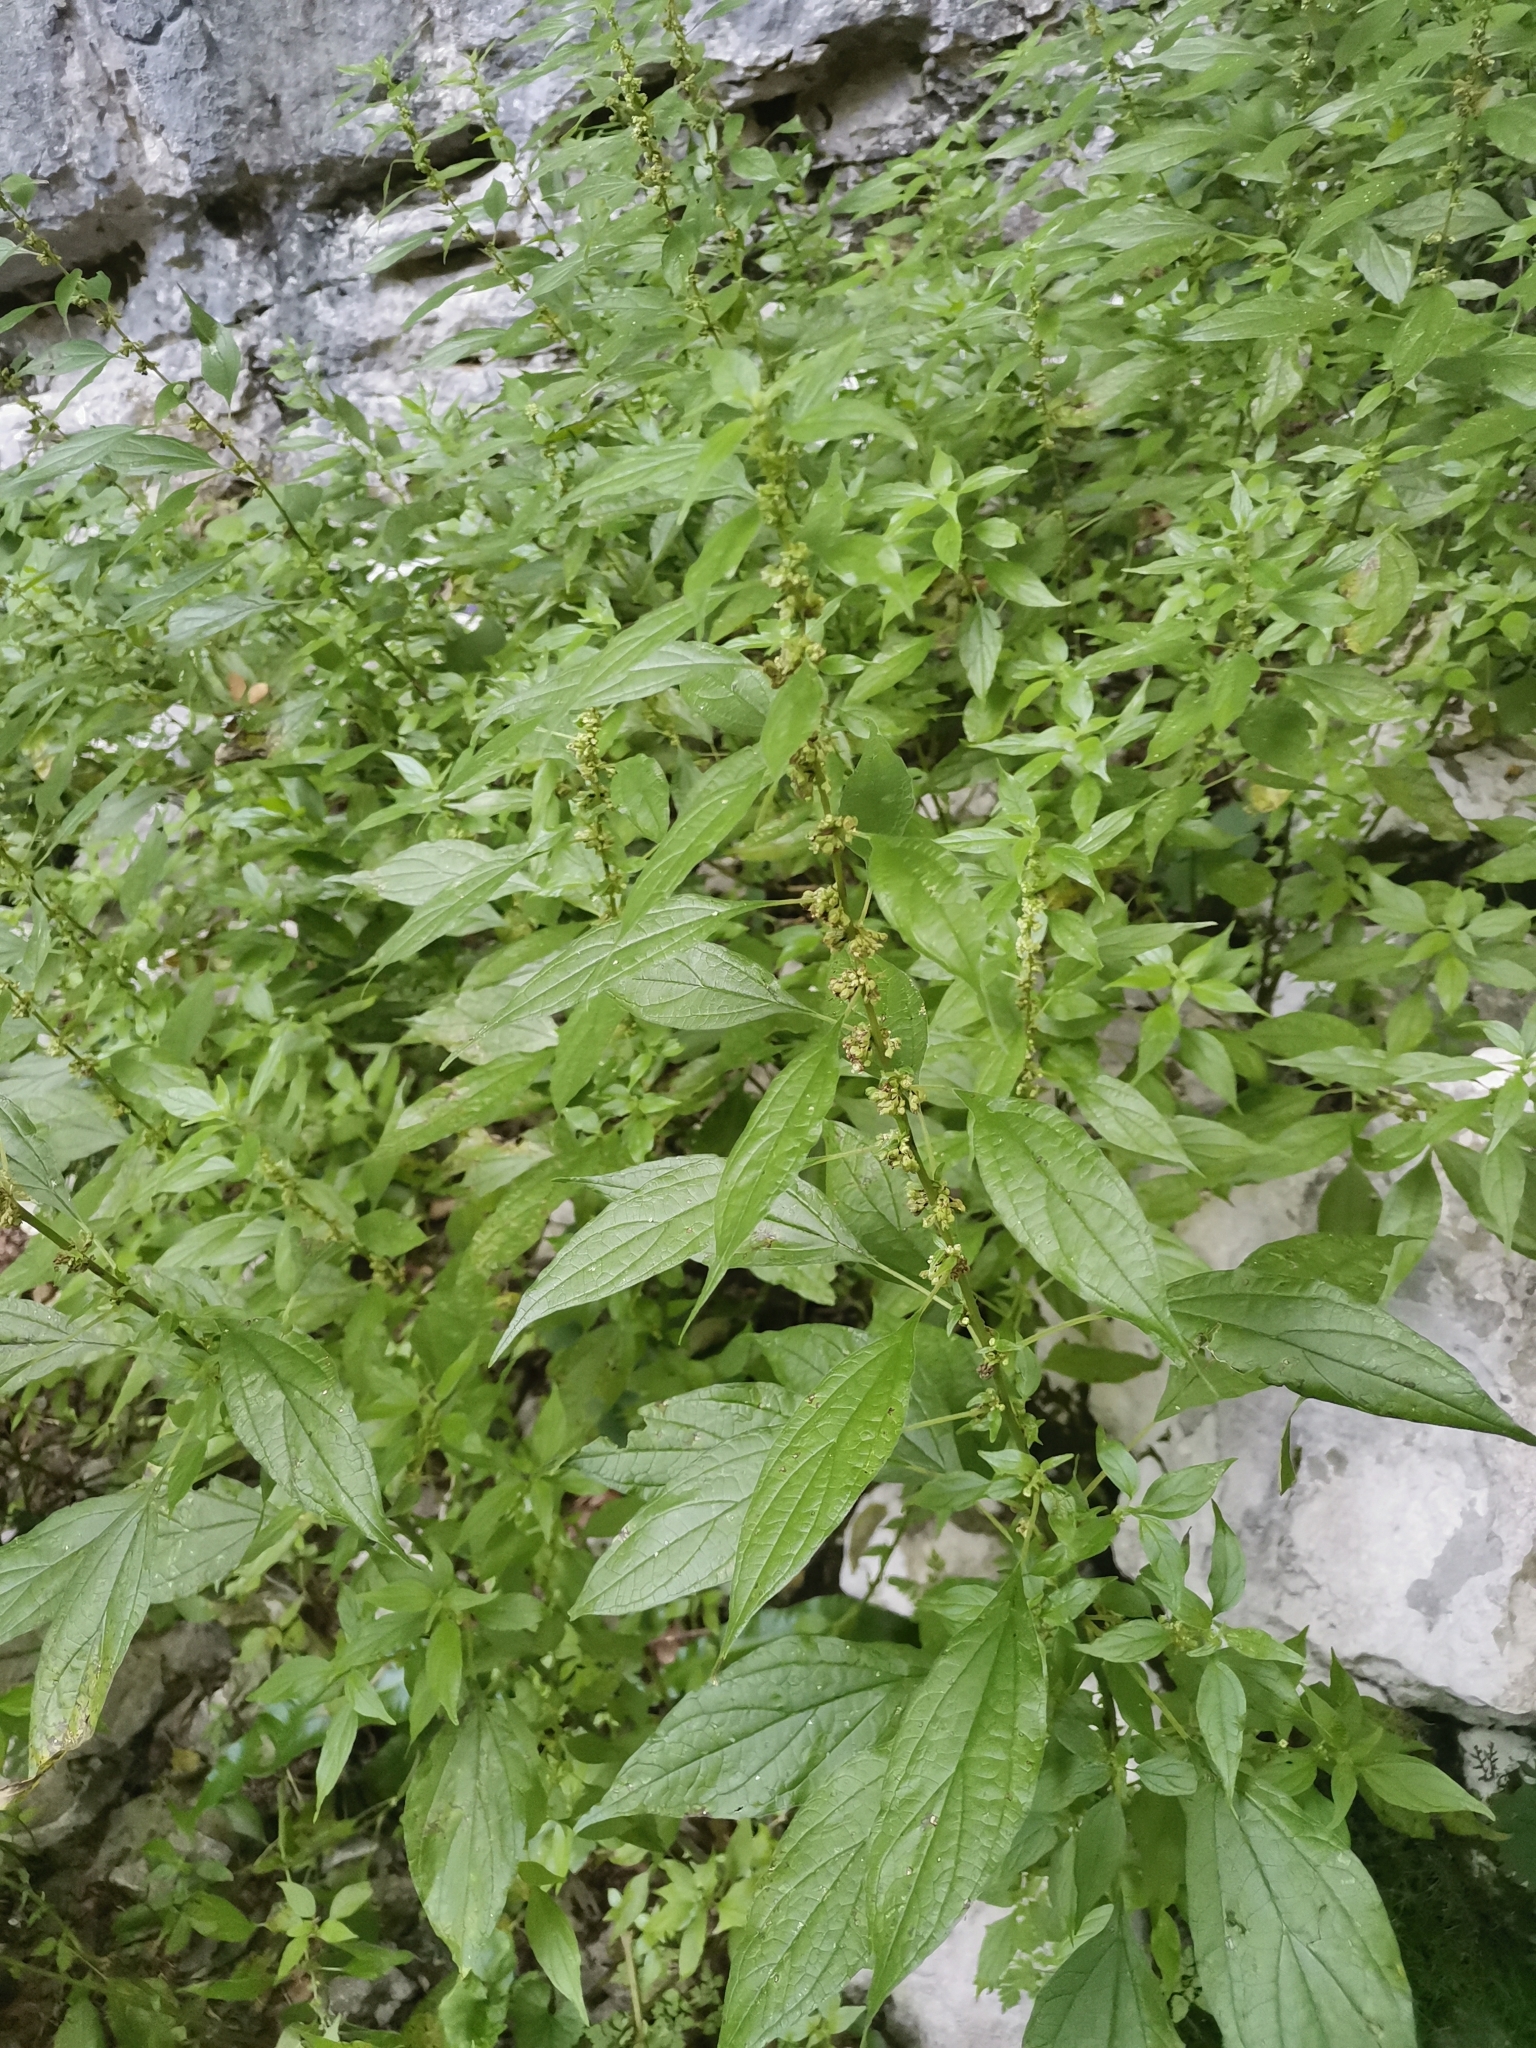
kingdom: Plantae
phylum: Tracheophyta
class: Magnoliopsida
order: Rosales
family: Urticaceae
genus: Parietaria
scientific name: Parietaria officinalis
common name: Eastern pellitory-of-the-wall
